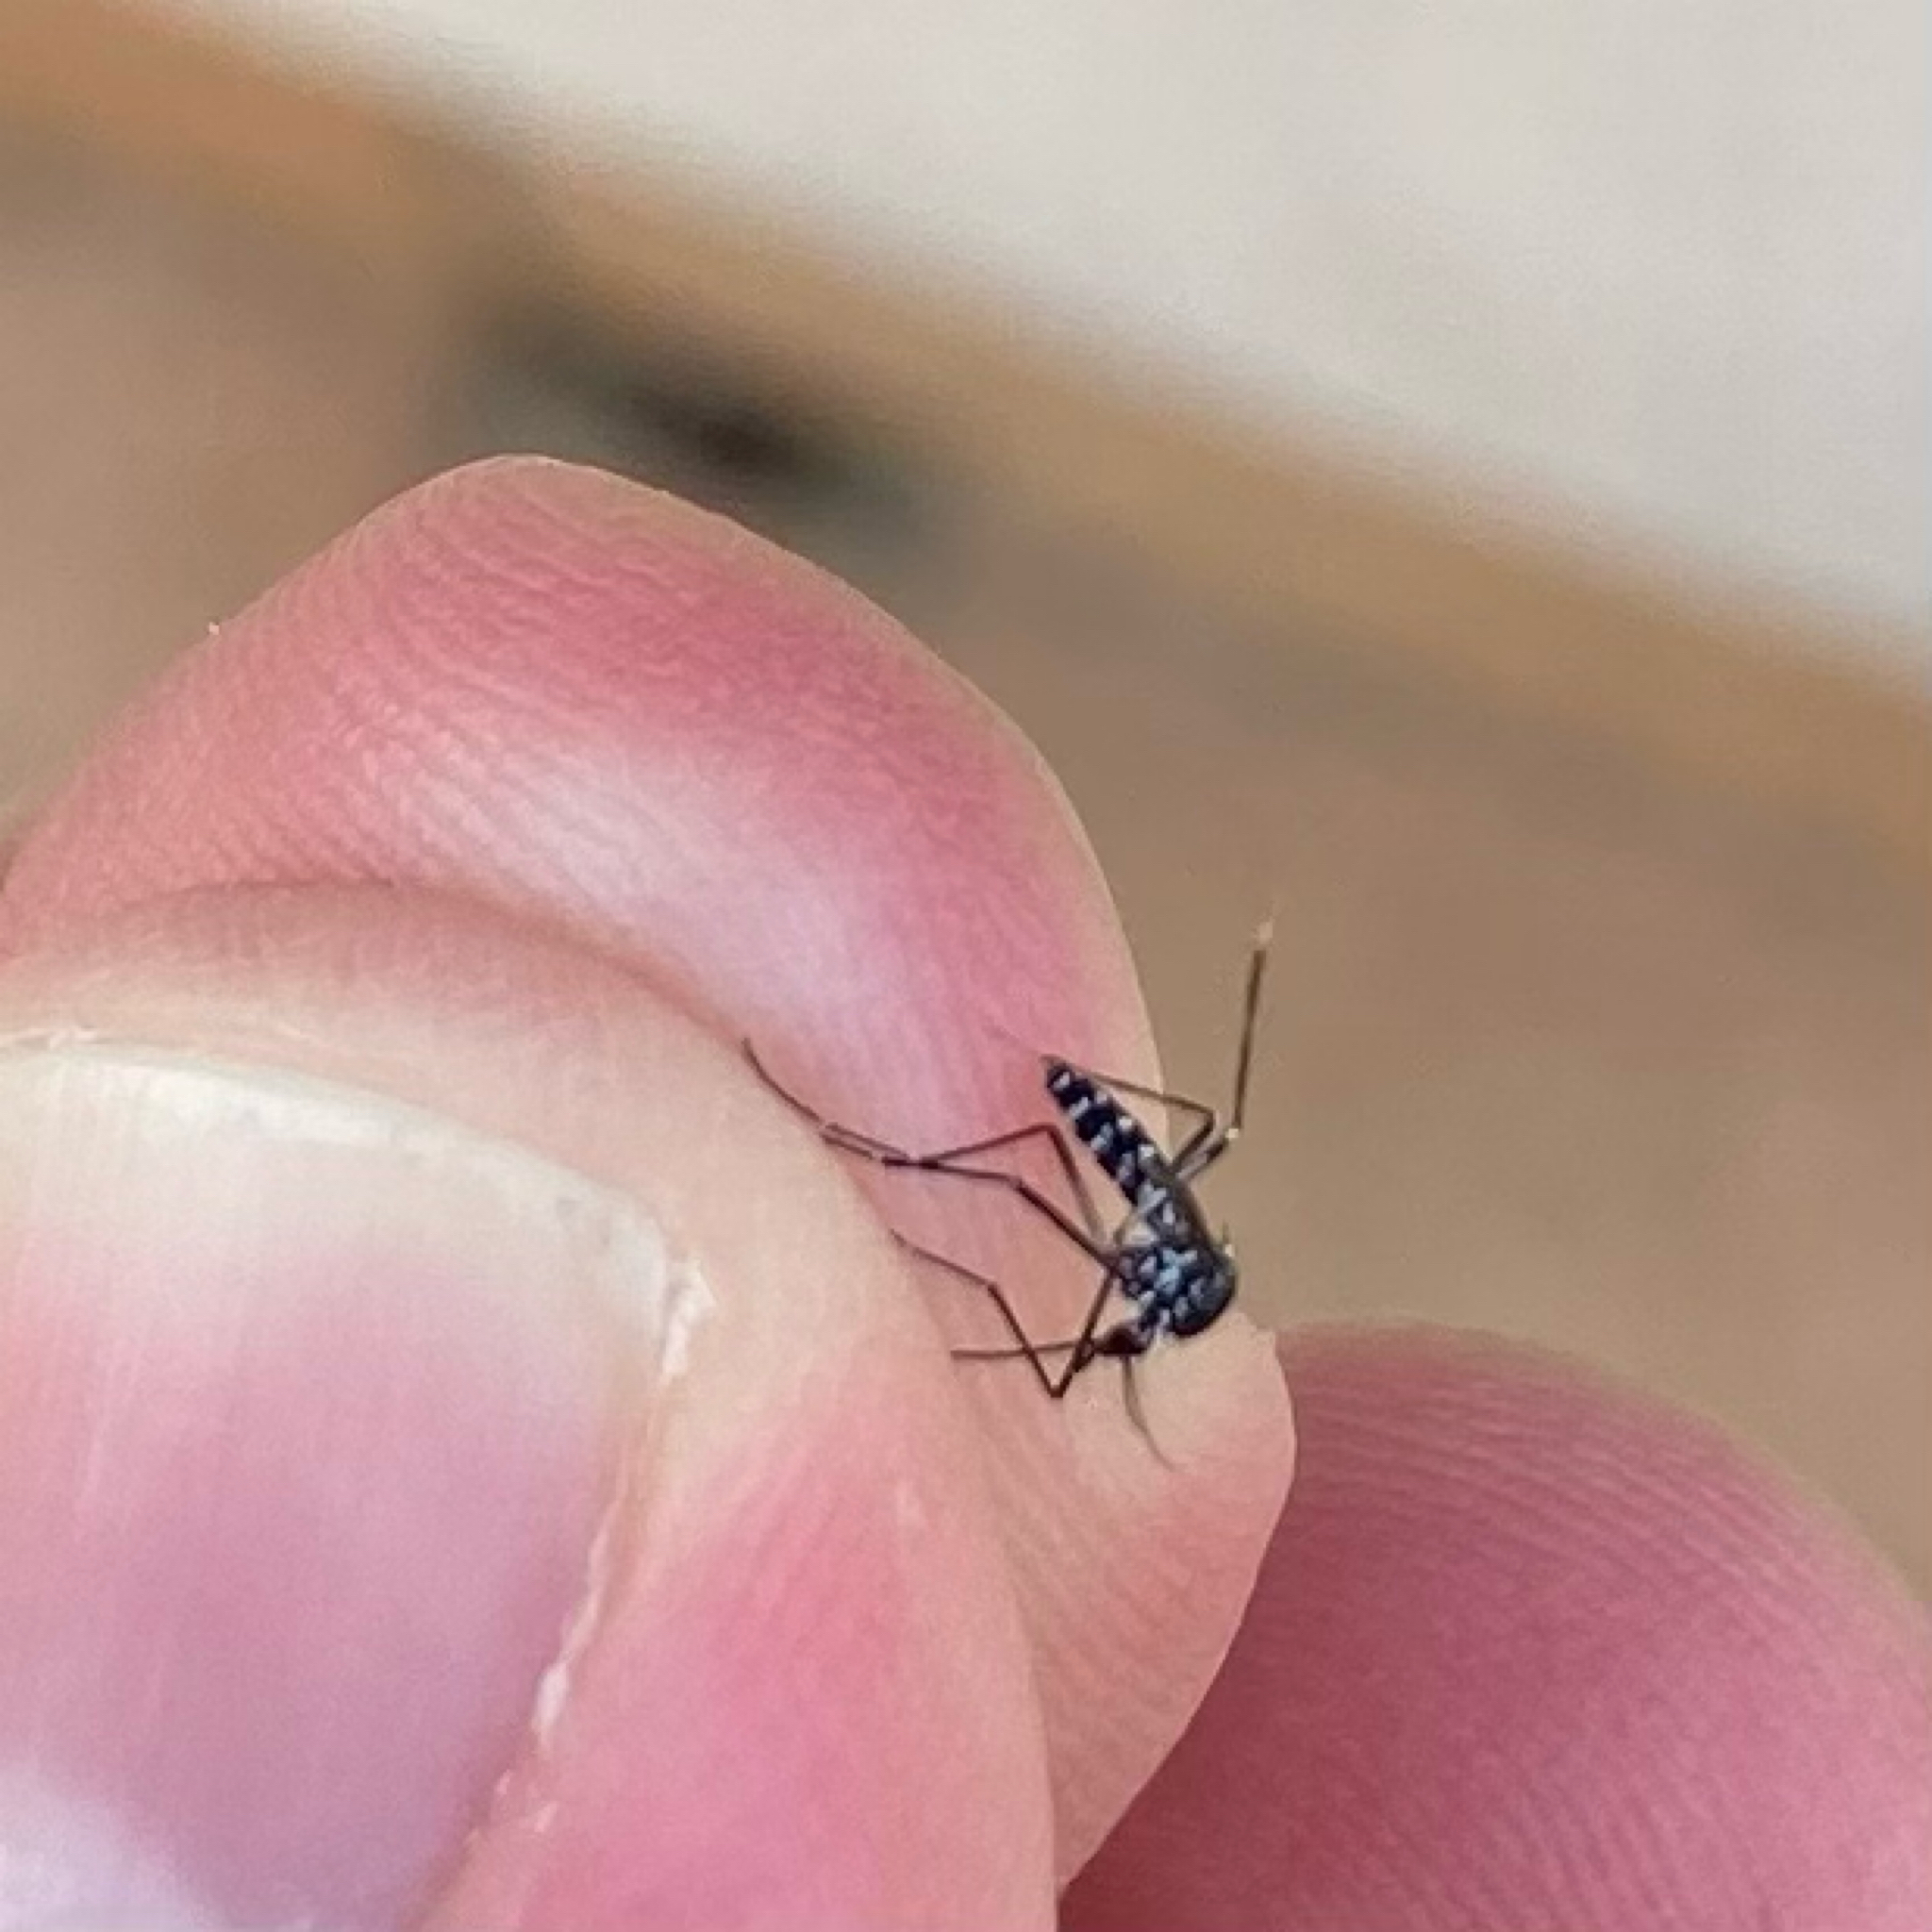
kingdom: Animalia
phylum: Arthropoda
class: Insecta
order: Diptera
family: Culicidae
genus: Aedes
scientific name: Aedes albopictus
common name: Tiger mosquito
